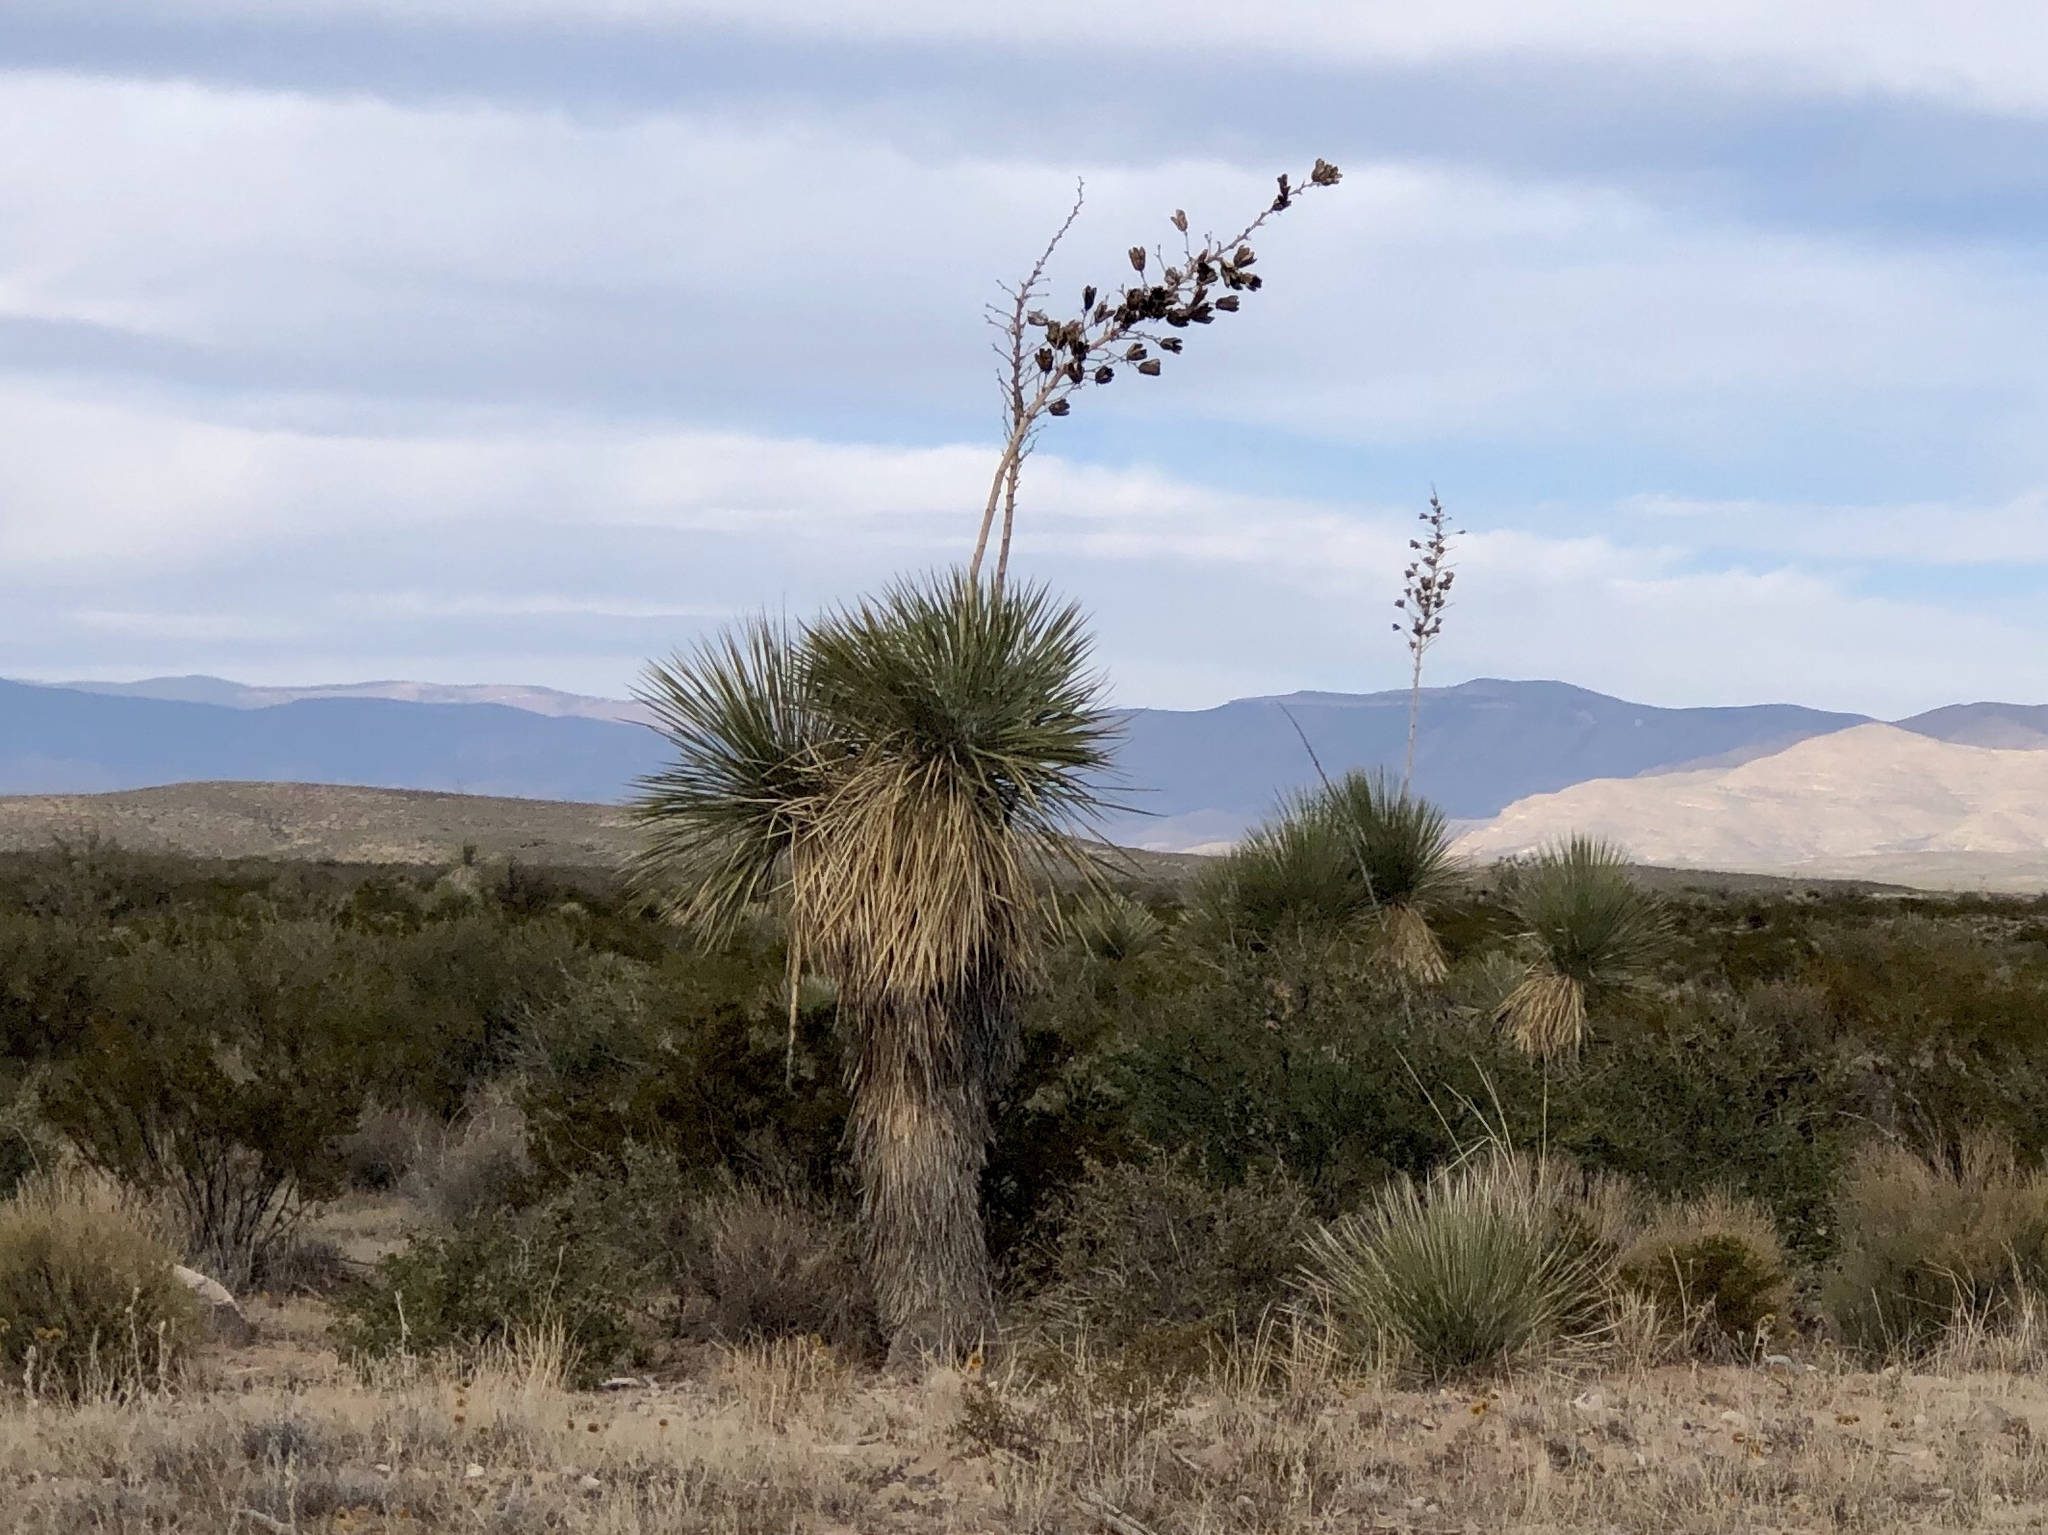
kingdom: Plantae
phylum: Tracheophyta
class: Liliopsida
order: Asparagales
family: Asparagaceae
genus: Yucca
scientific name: Yucca elata
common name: Palmella
